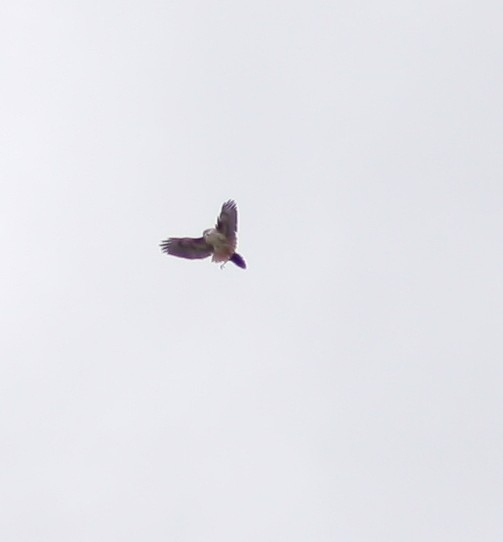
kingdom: Animalia
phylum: Chordata
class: Aves
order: Accipitriformes
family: Accipitridae
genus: Buteo
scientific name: Buteo jamaicensis
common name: Red-tailed hawk
